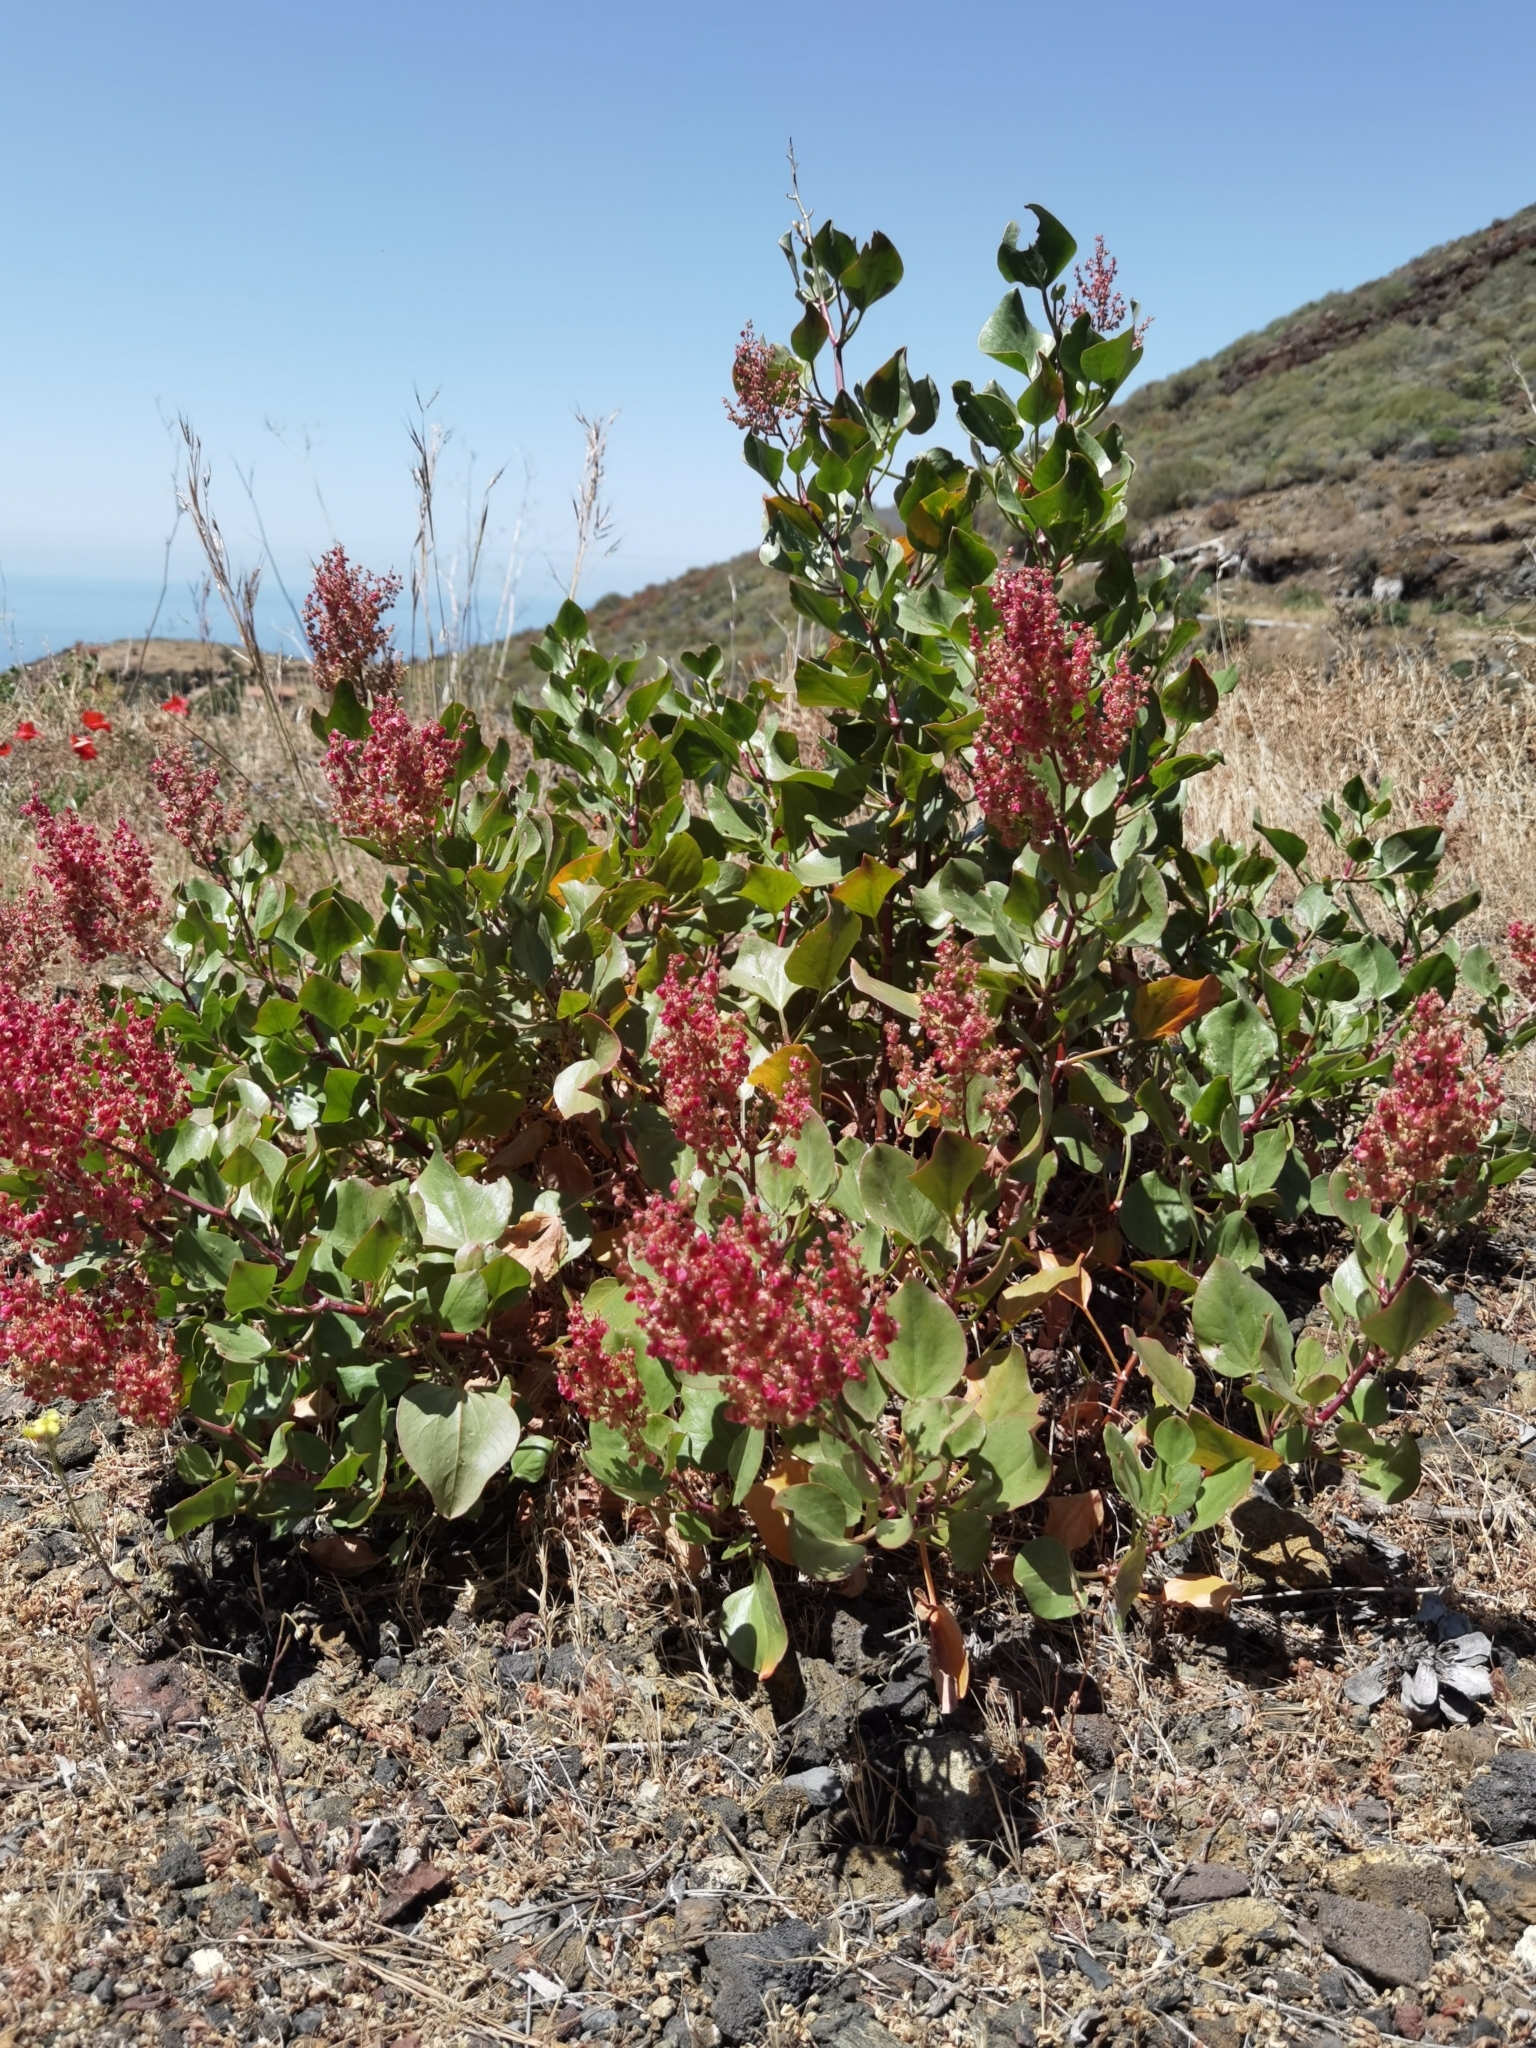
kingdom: Plantae
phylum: Tracheophyta
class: Magnoliopsida
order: Caryophyllales
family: Polygonaceae
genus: Rumex
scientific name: Rumex lunaria
